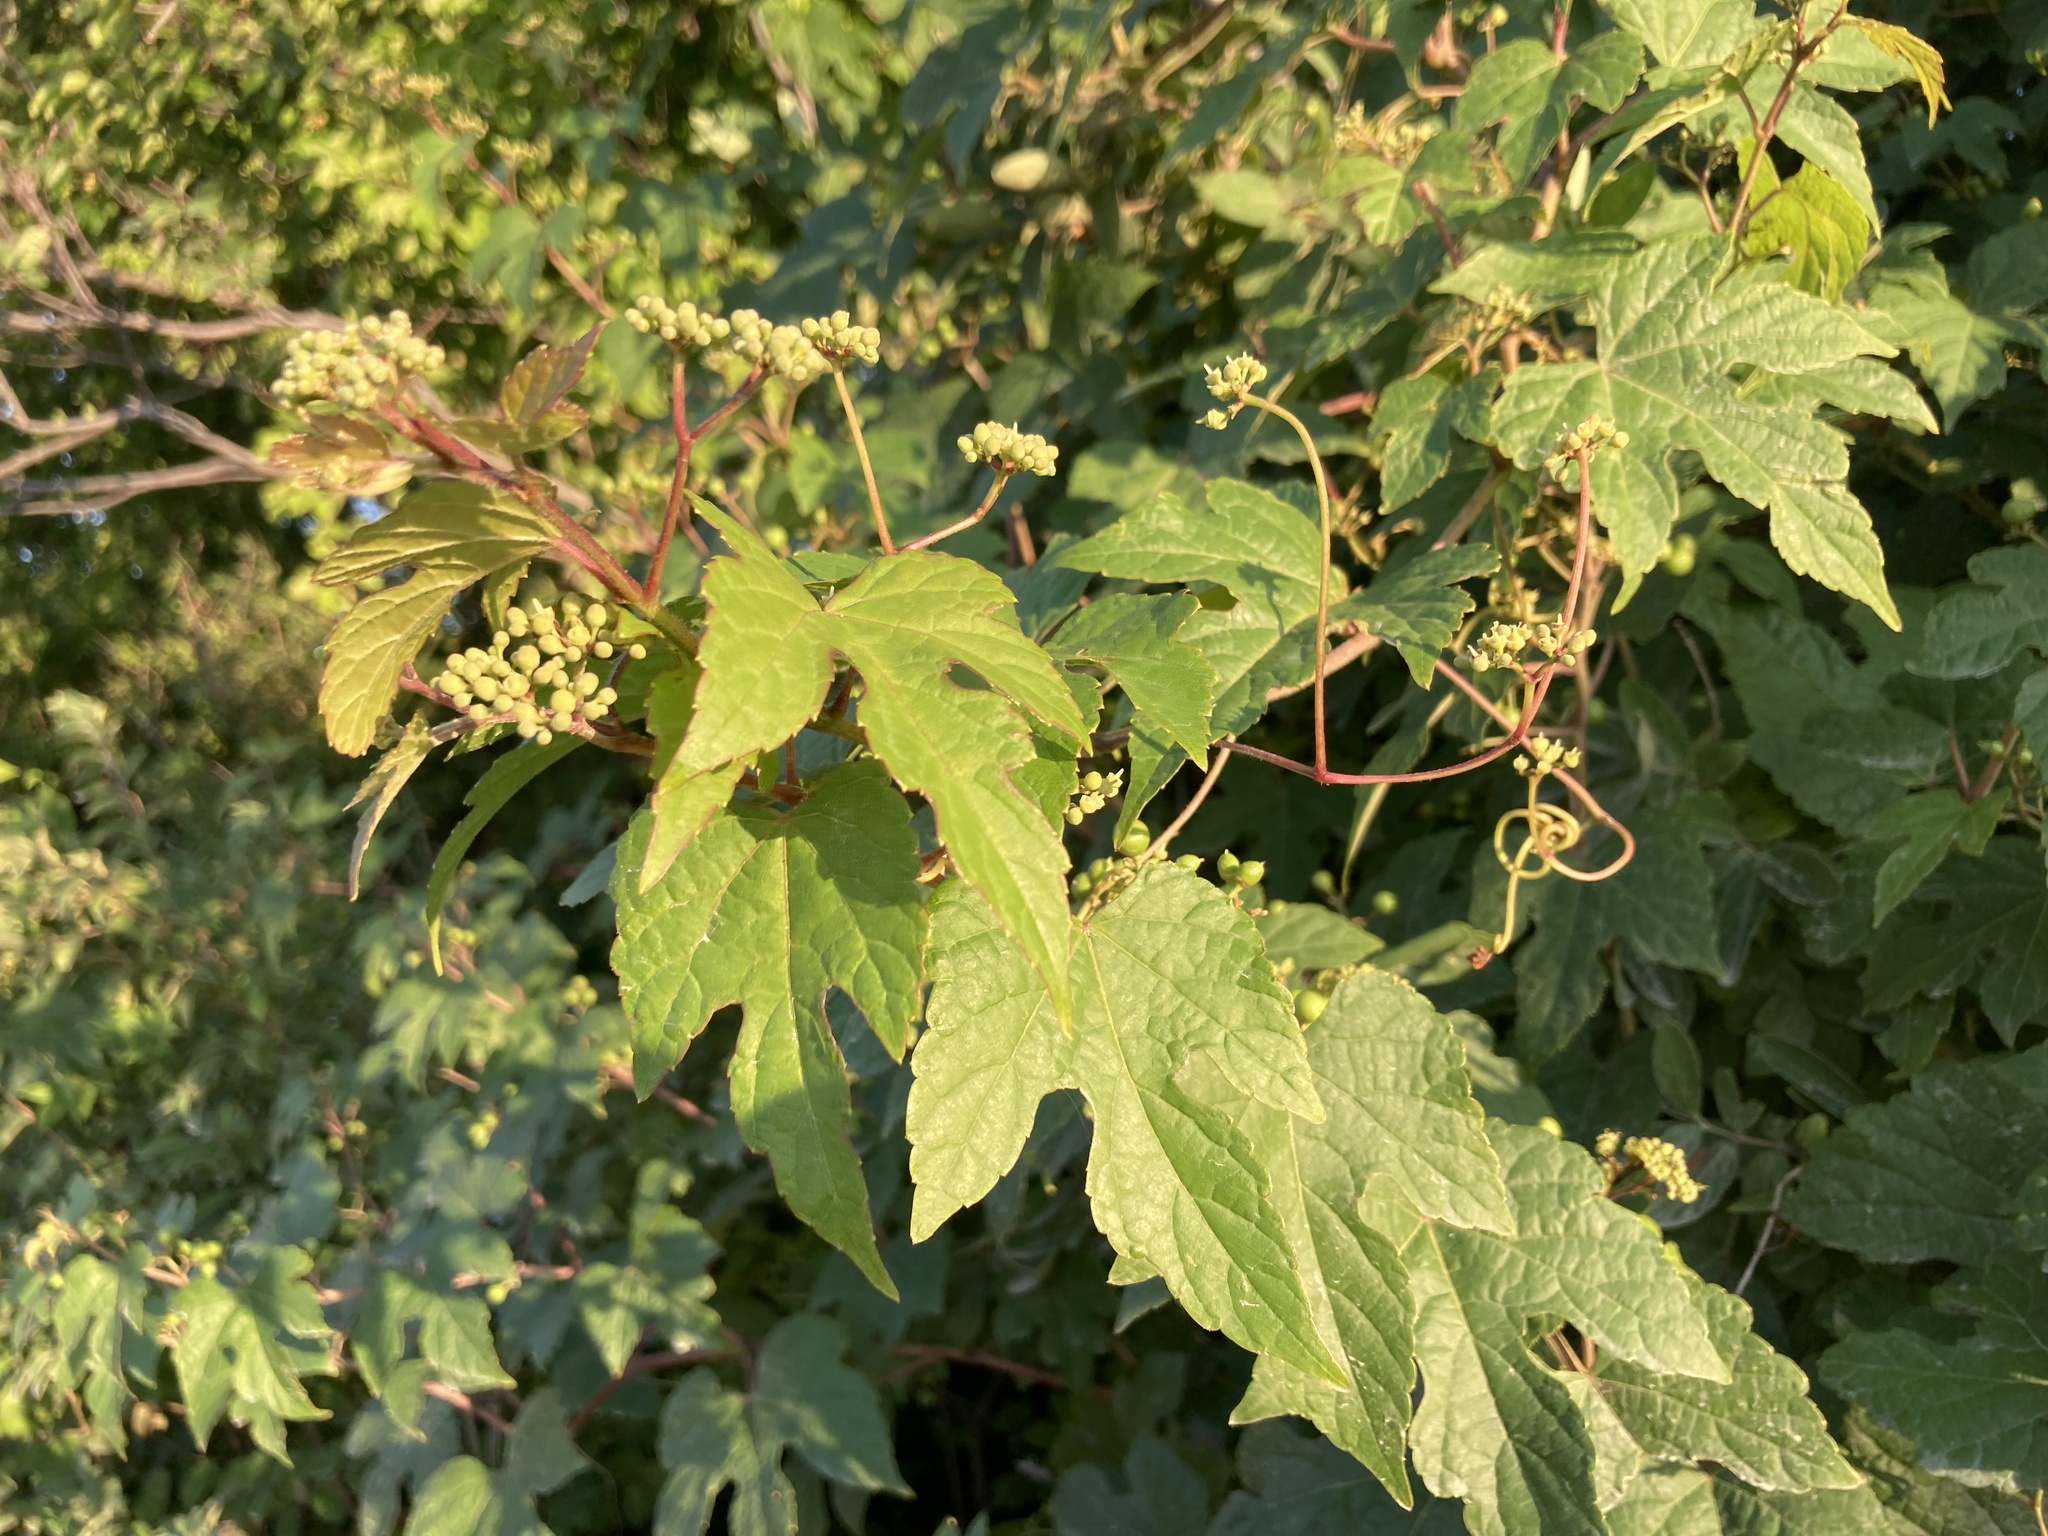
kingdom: Plantae
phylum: Tracheophyta
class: Magnoliopsida
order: Vitales
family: Vitaceae
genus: Ampelopsis
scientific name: Ampelopsis glandulosa
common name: Amur peppervine
